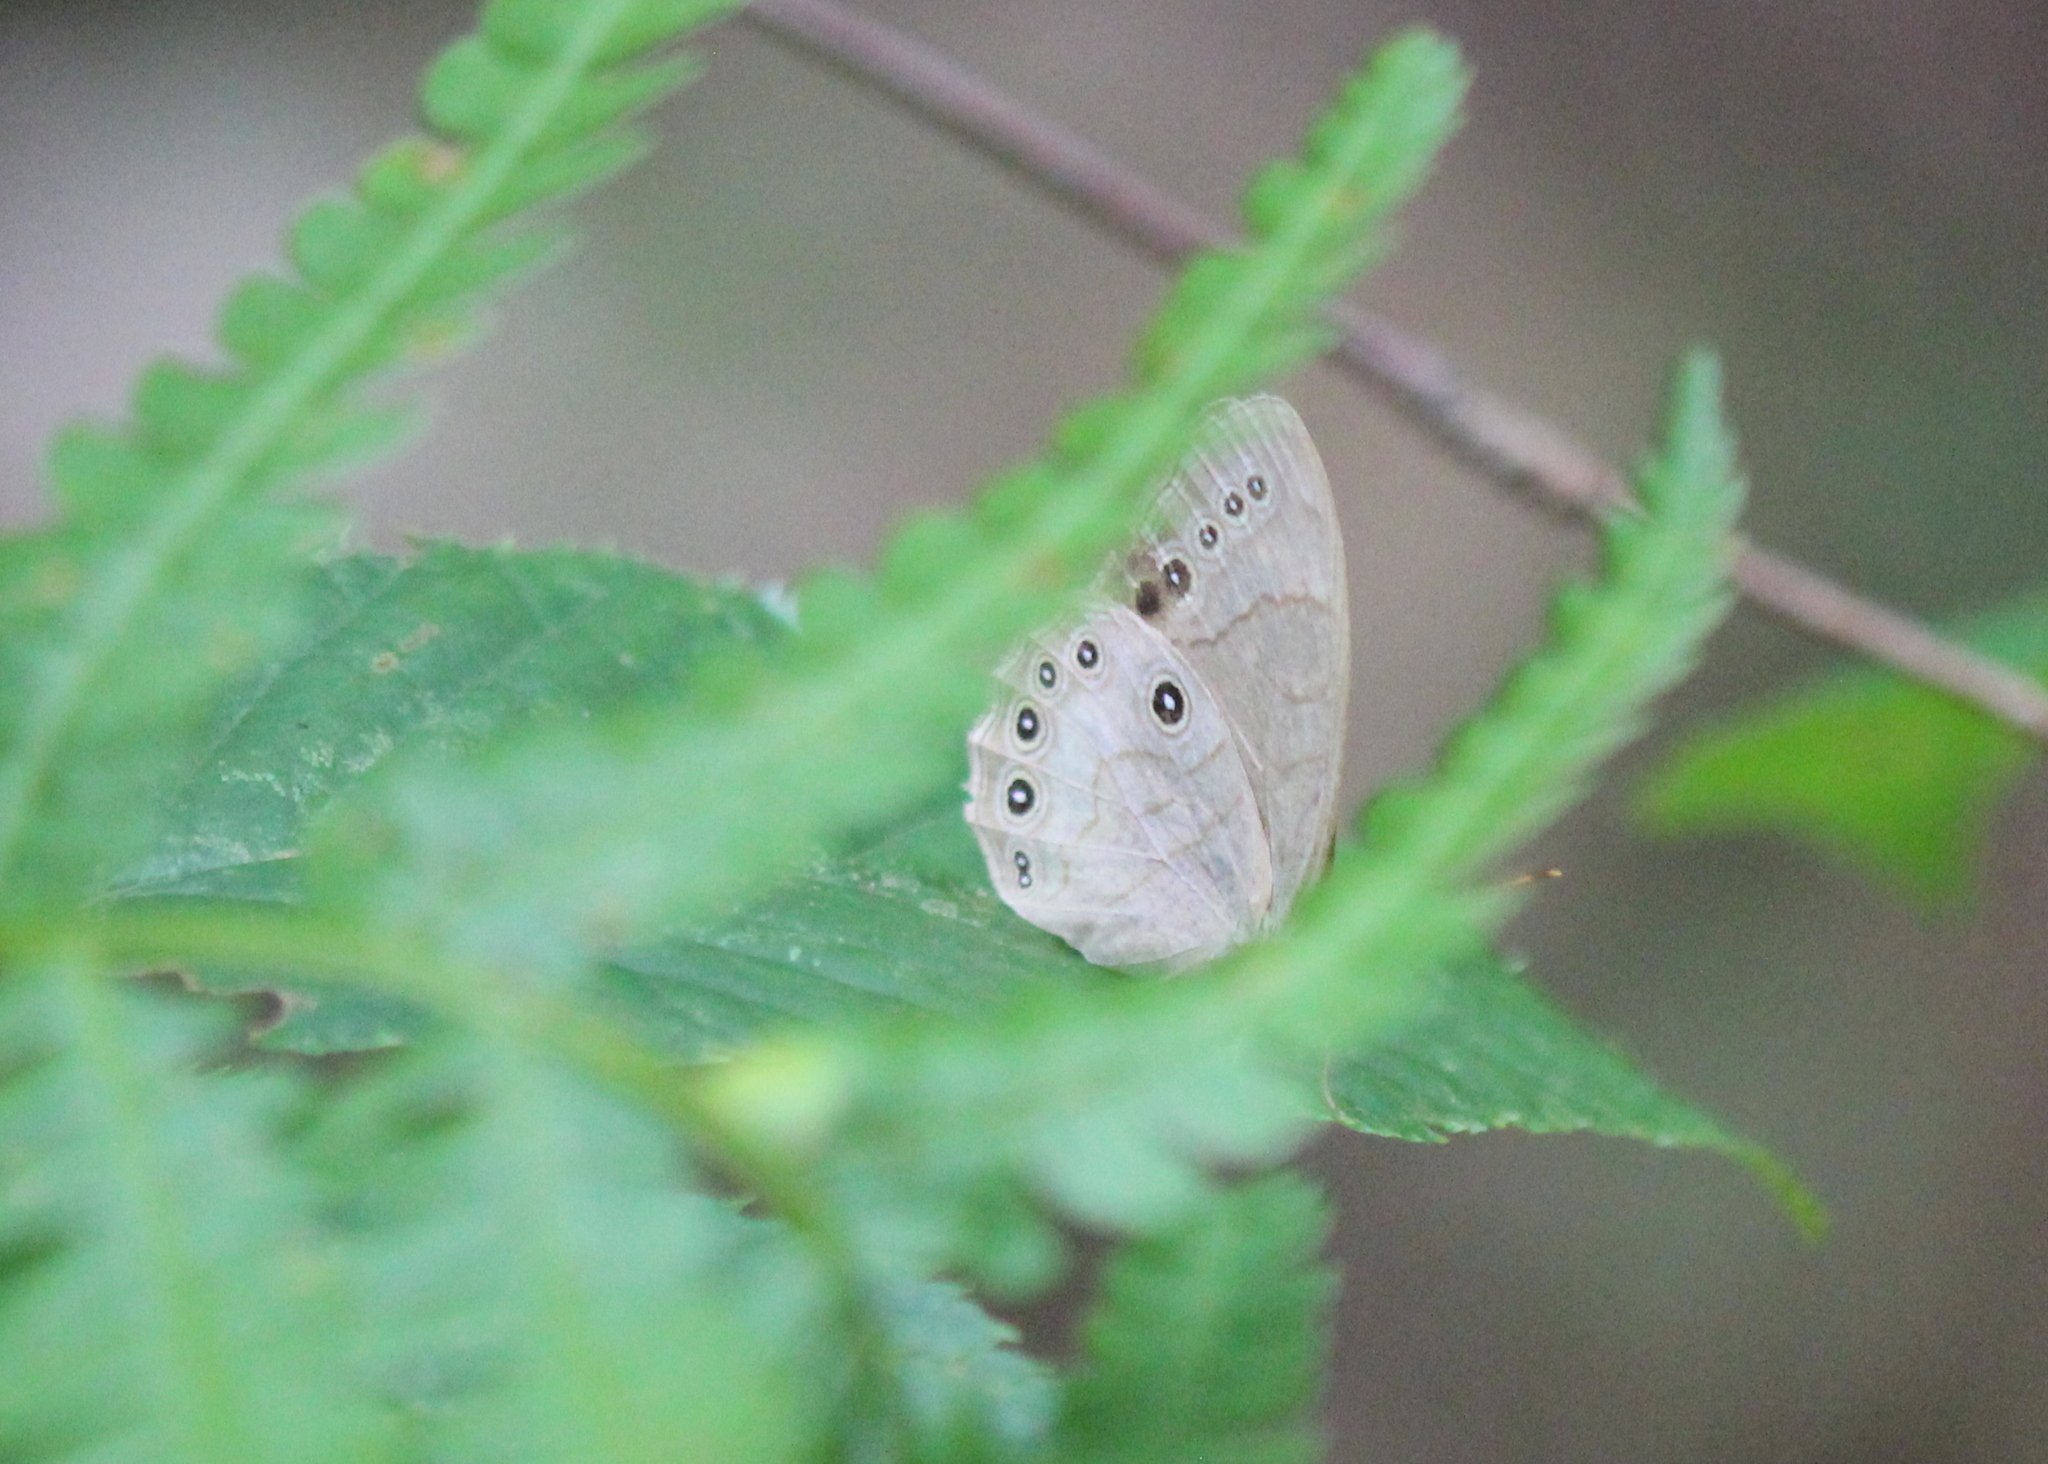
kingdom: Animalia
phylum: Arthropoda
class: Insecta
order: Lepidoptera
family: Nymphalidae
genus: Lethe
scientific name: Lethe eurydice
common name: Eyed brown
